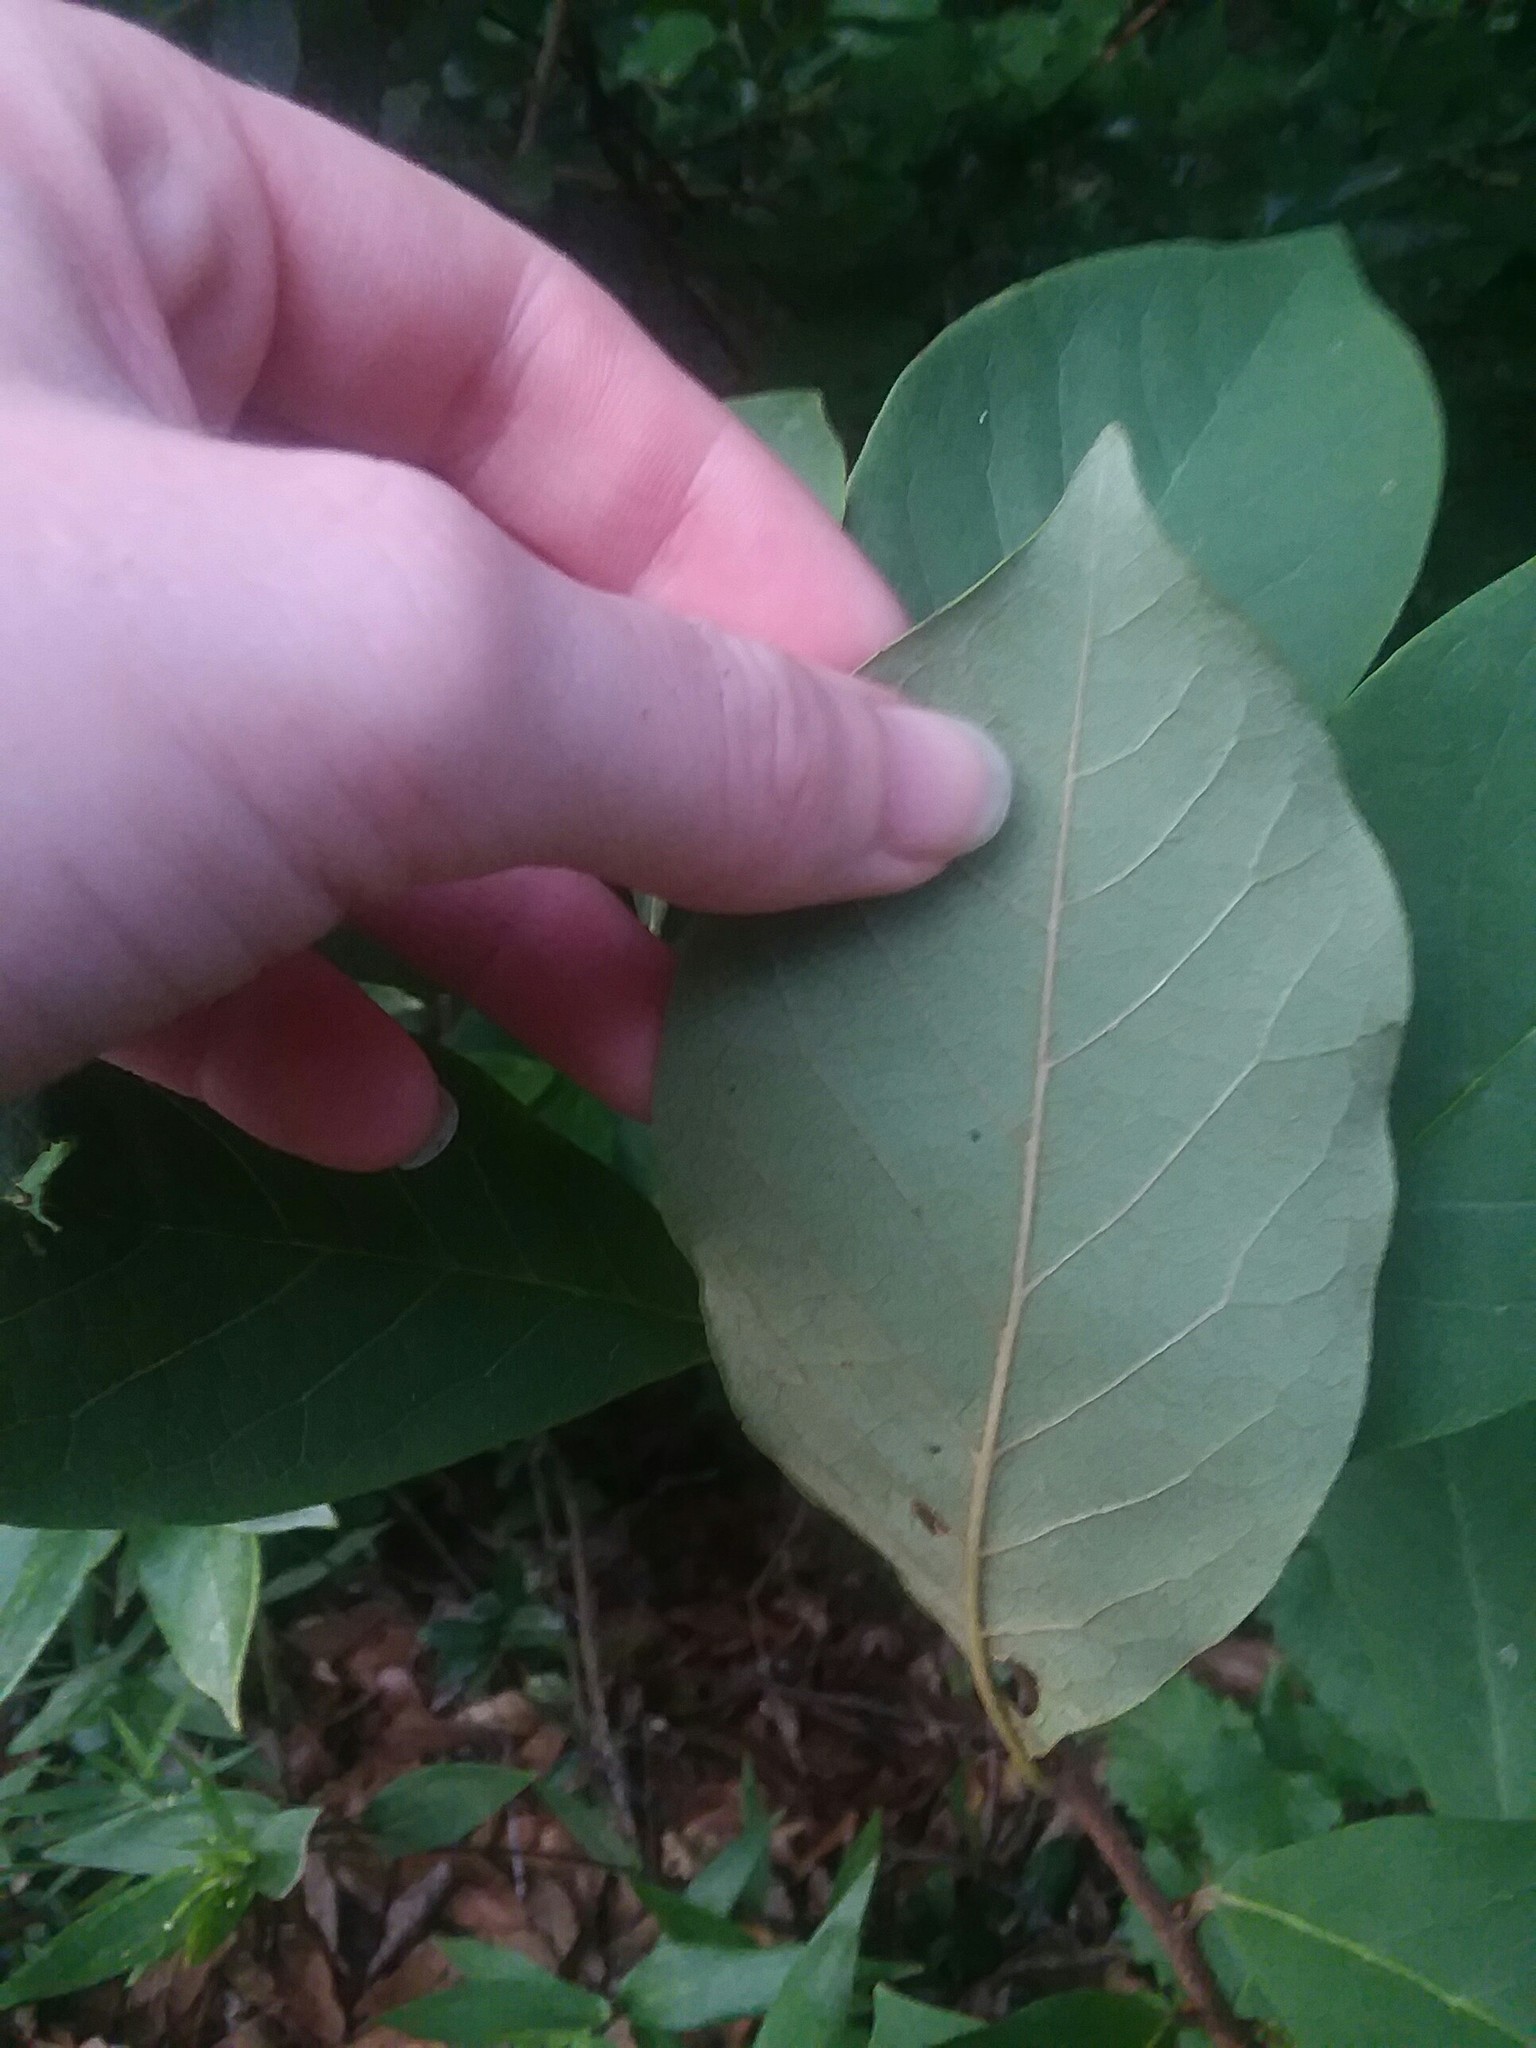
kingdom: Plantae
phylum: Tracheophyta
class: Magnoliopsida
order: Magnoliales
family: Annonaceae
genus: Asimina
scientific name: Asimina parviflora
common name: Dwarf pawpaw
